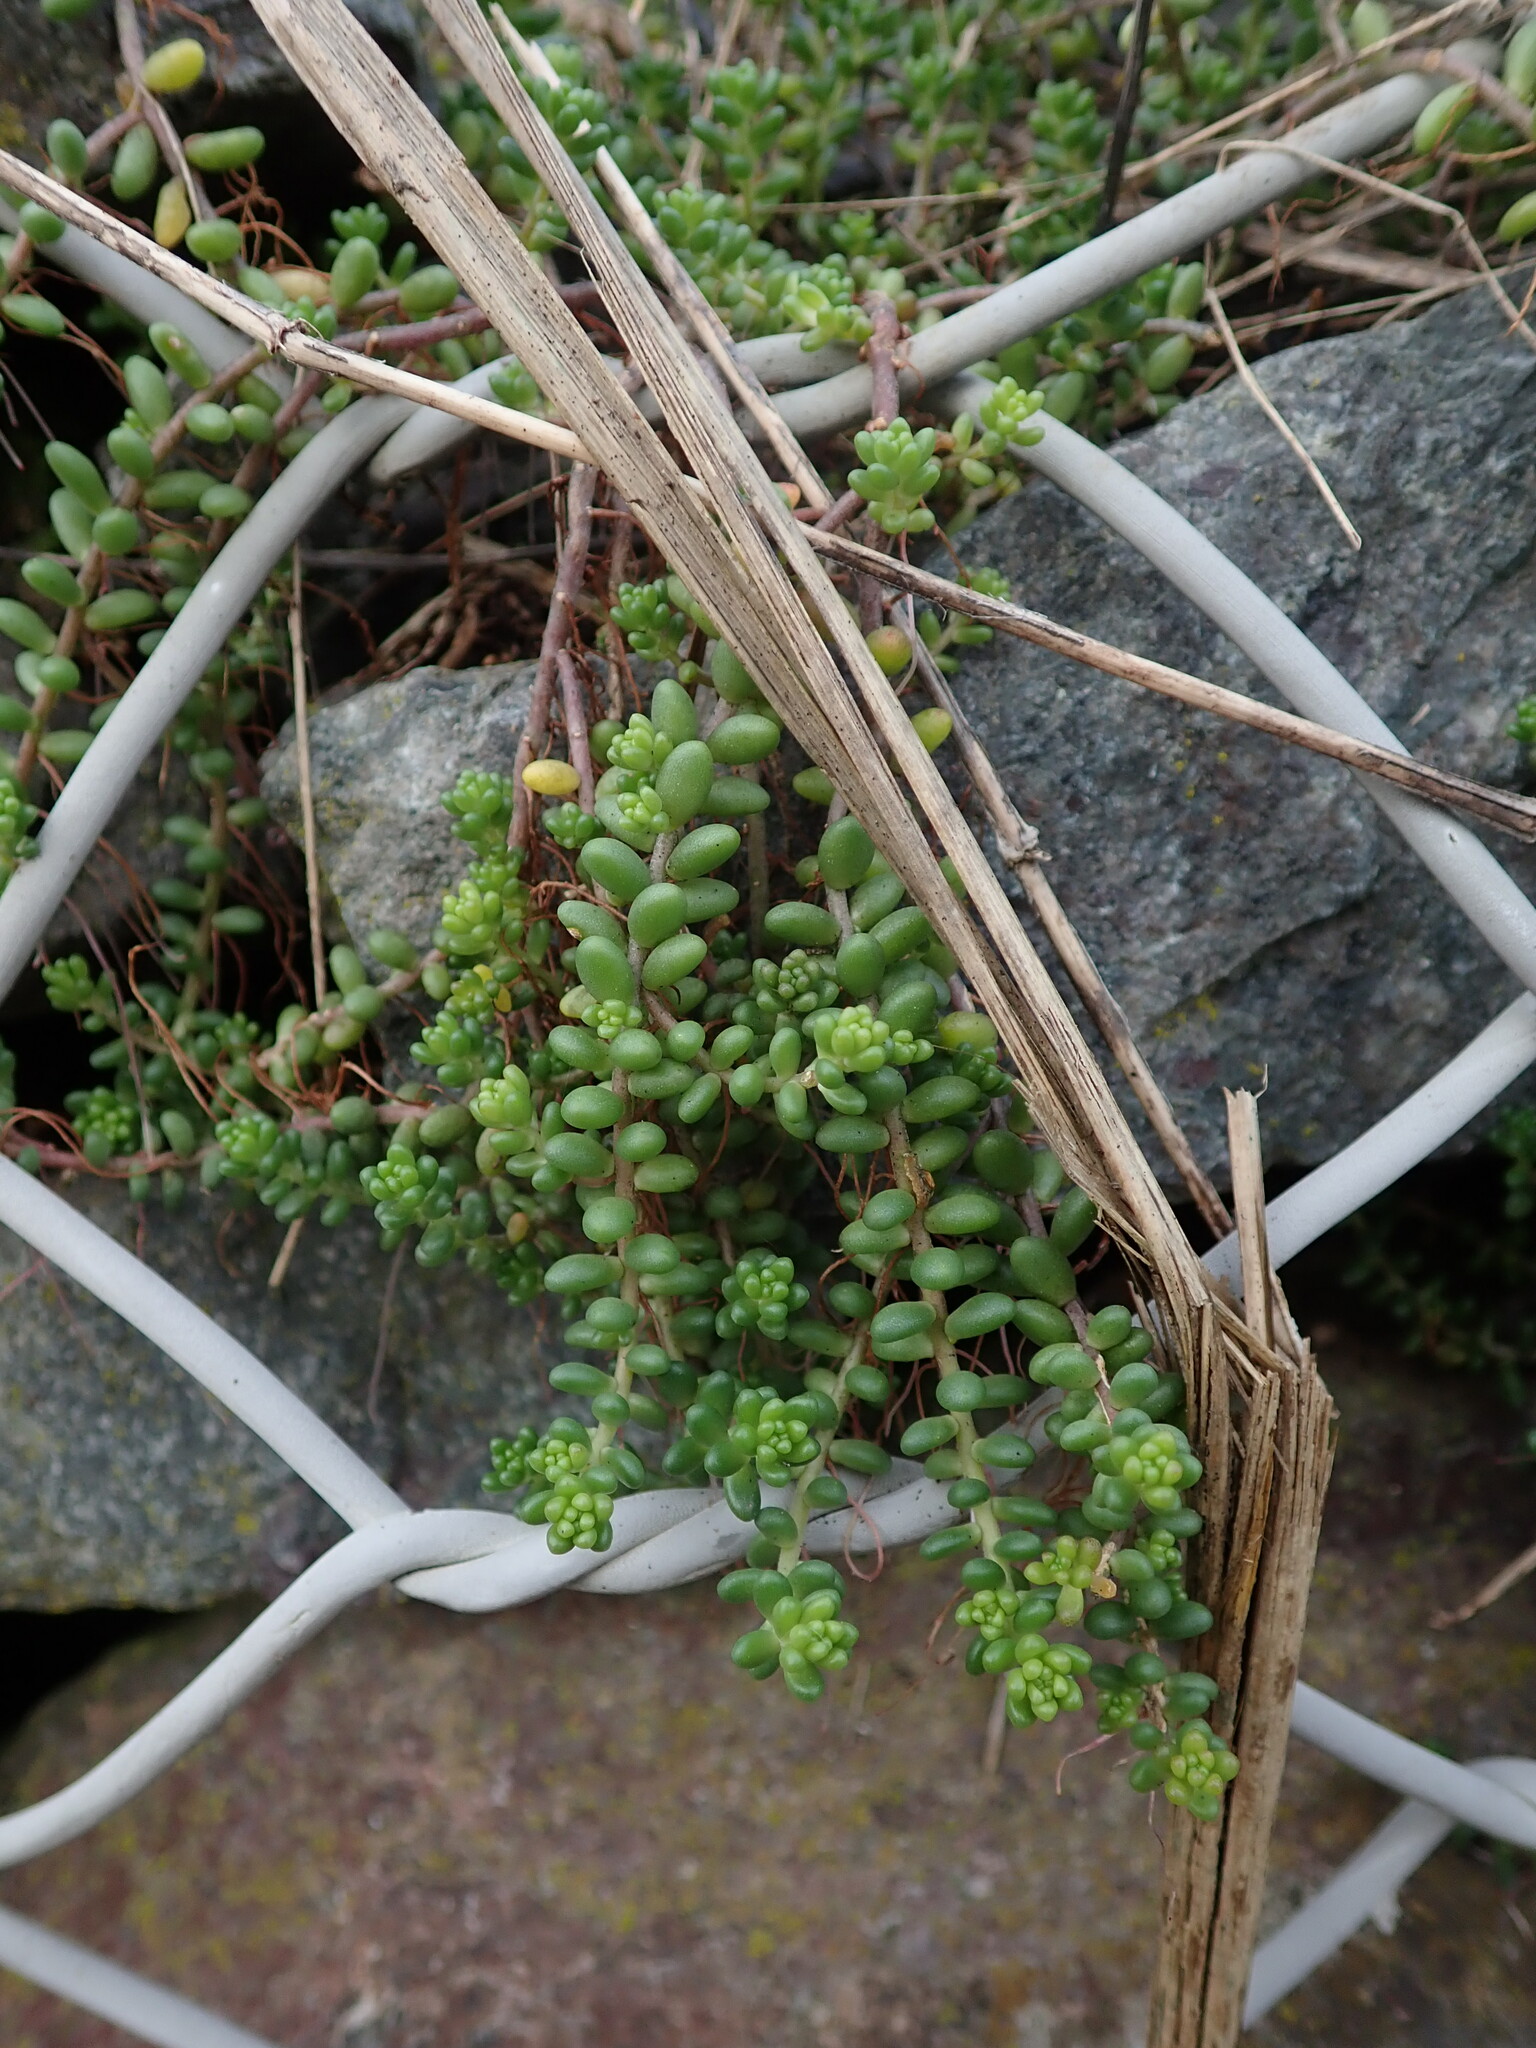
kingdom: Plantae
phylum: Tracheophyta
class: Magnoliopsida
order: Saxifragales
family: Crassulaceae
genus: Sedum
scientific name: Sedum album
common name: White stonecrop
